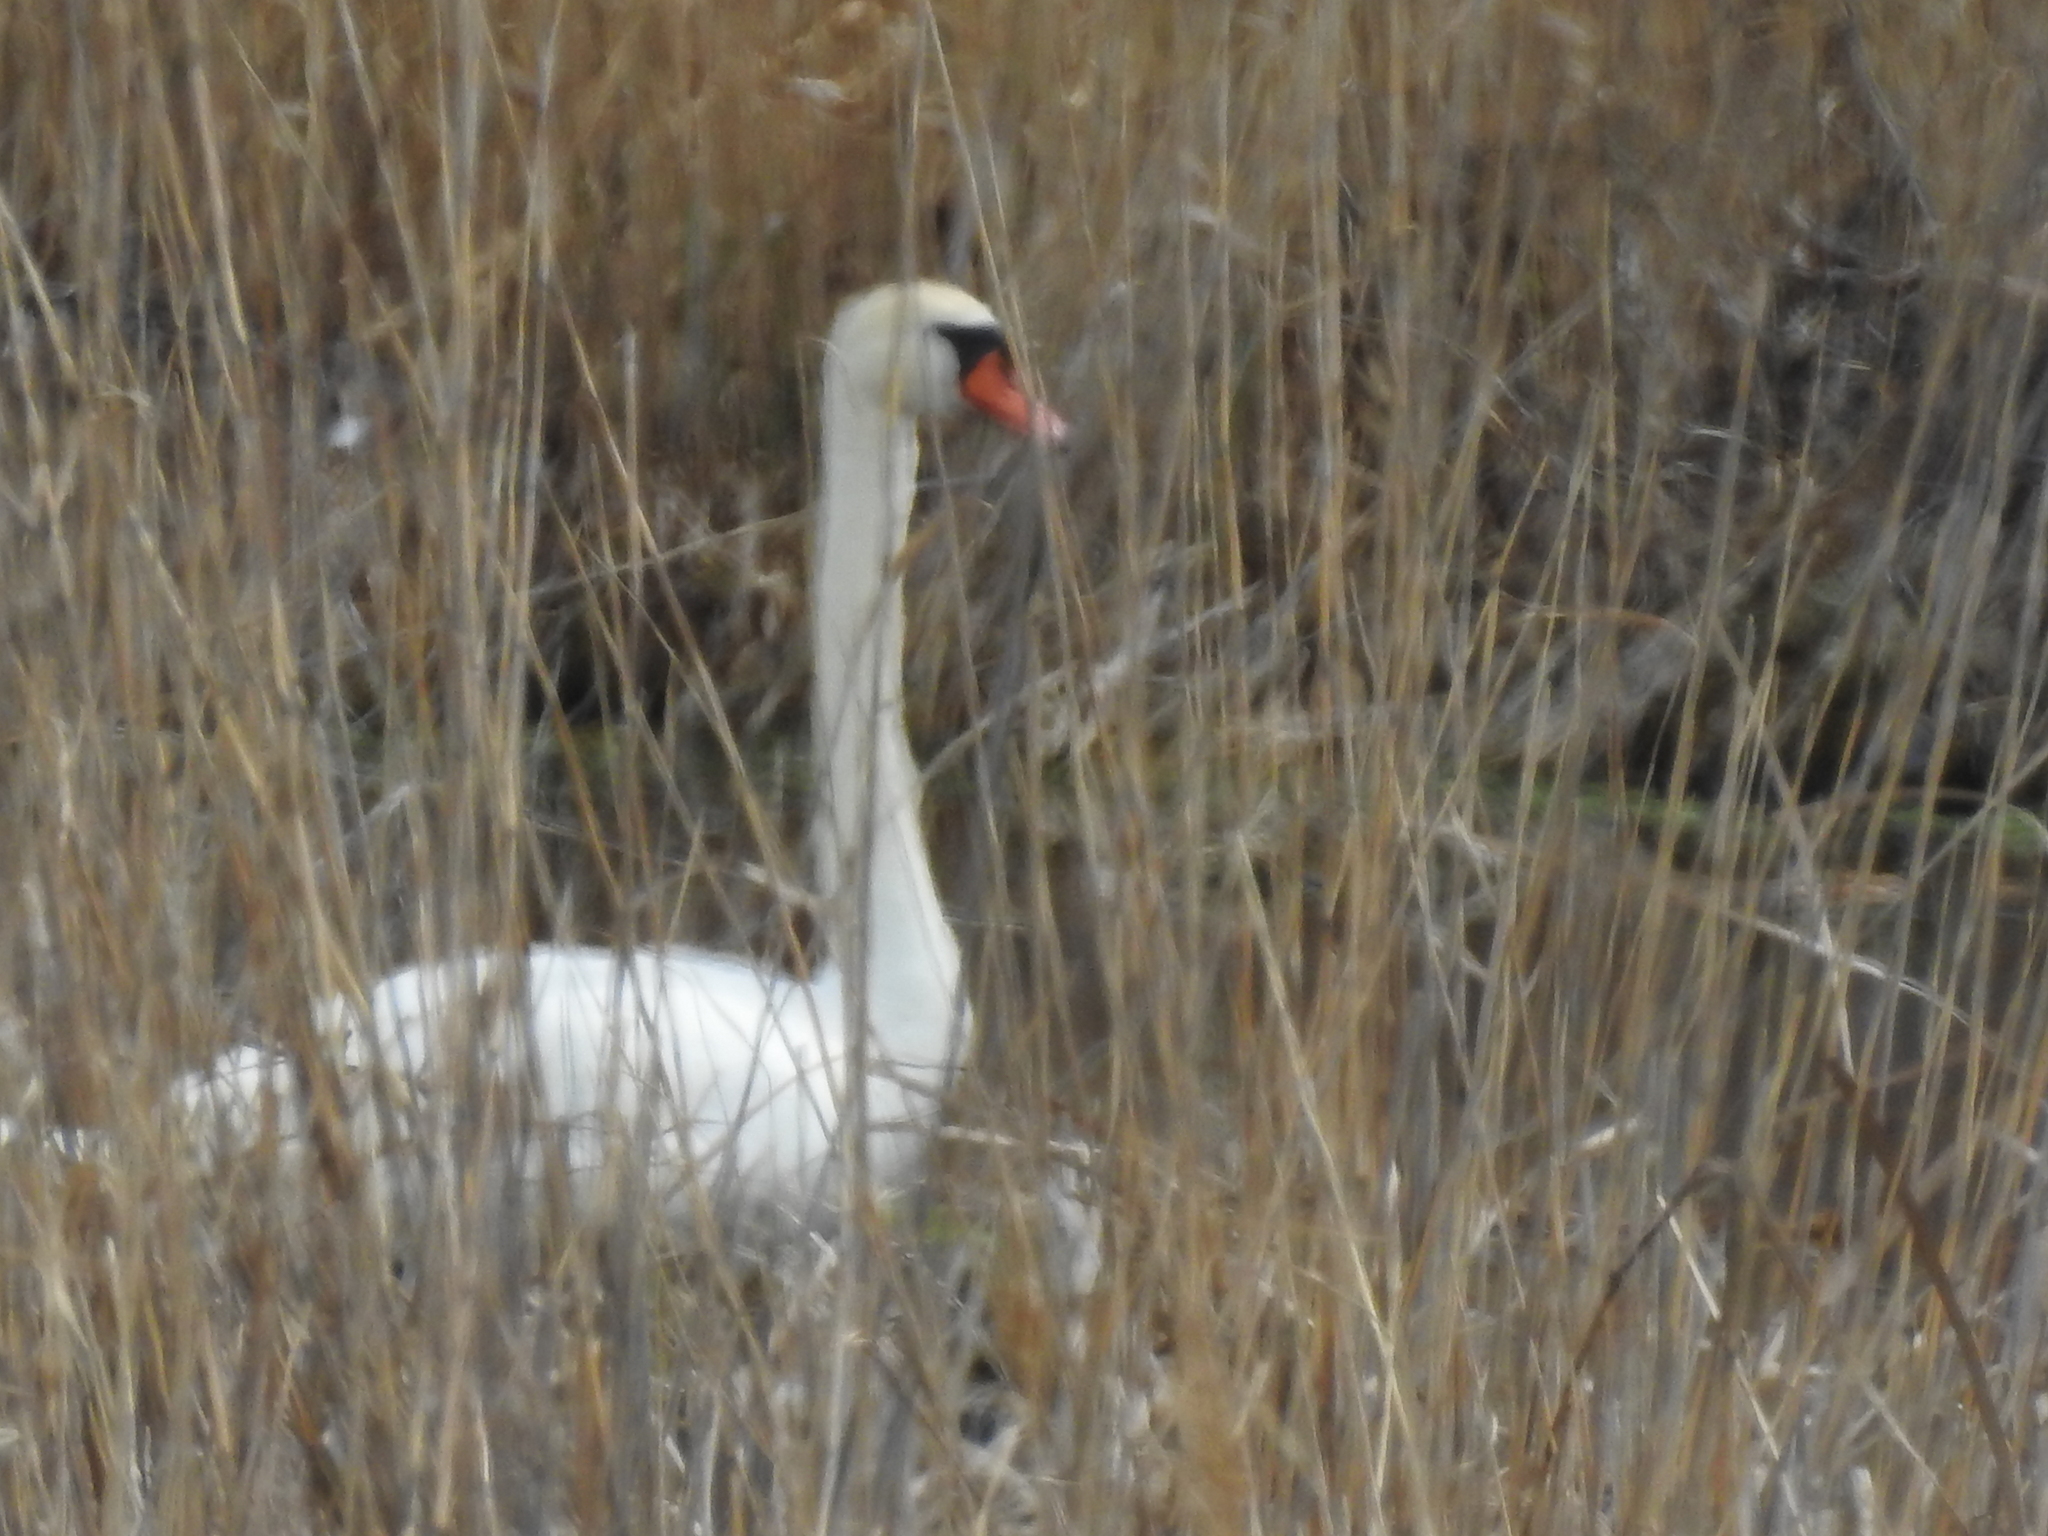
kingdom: Animalia
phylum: Chordata
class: Aves
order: Anseriformes
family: Anatidae
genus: Cygnus
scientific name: Cygnus olor
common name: Mute swan
